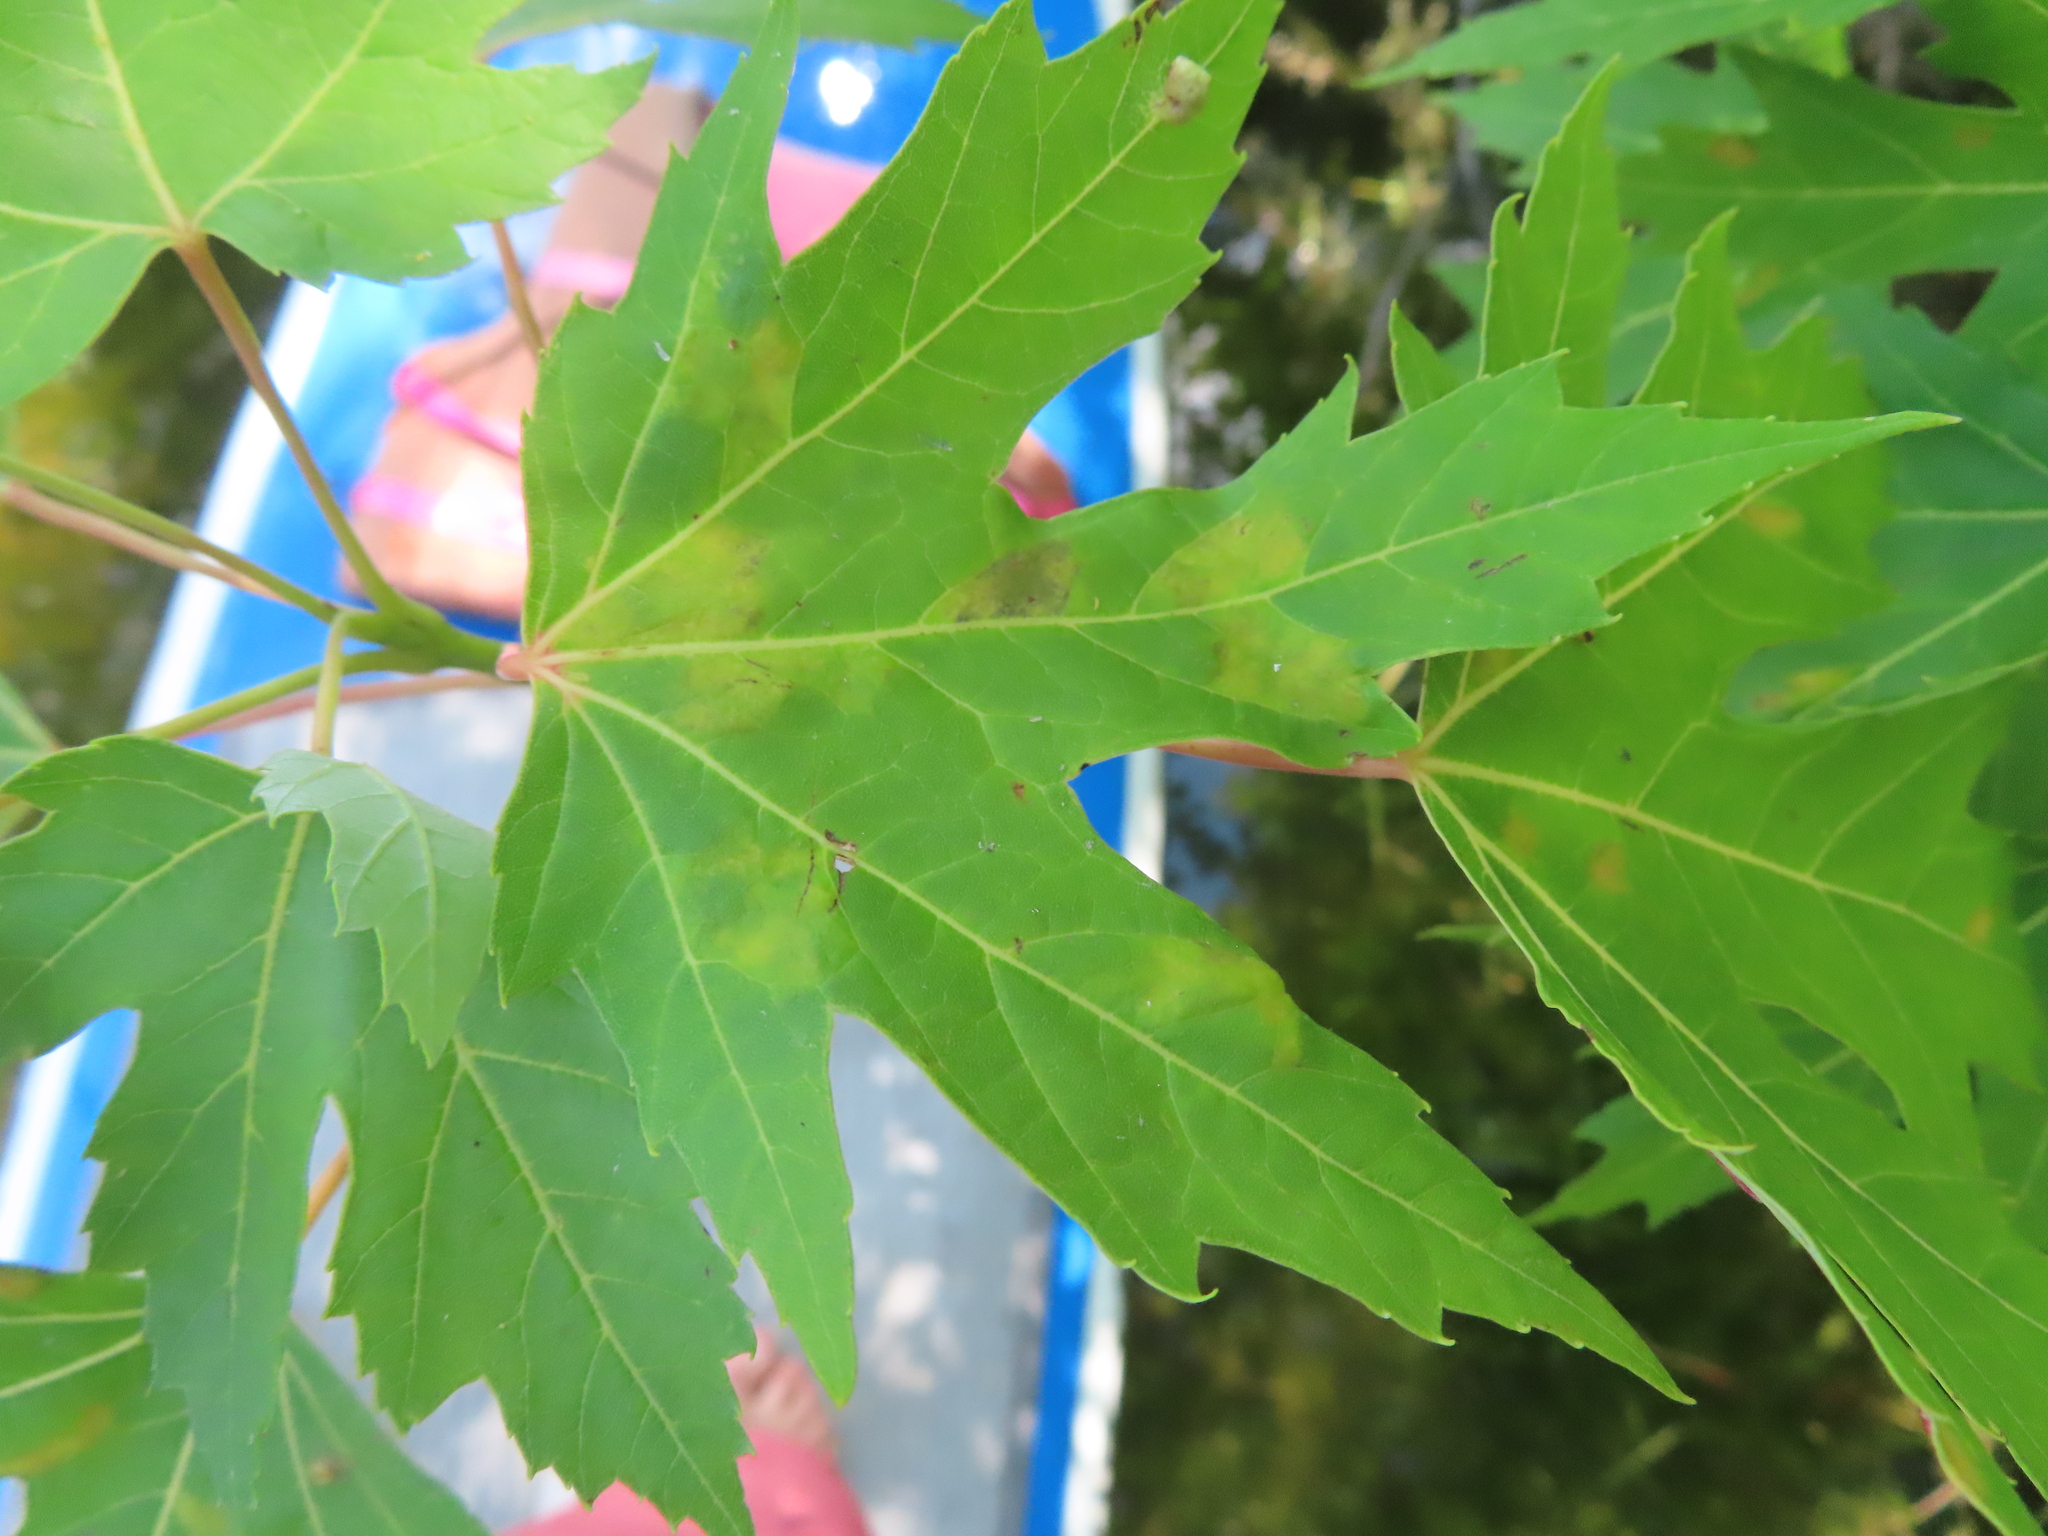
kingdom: Animalia
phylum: Arthropoda
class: Arachnida
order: Trombidiformes
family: Eriophyidae
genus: Eriophyes
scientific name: Eriophyes
